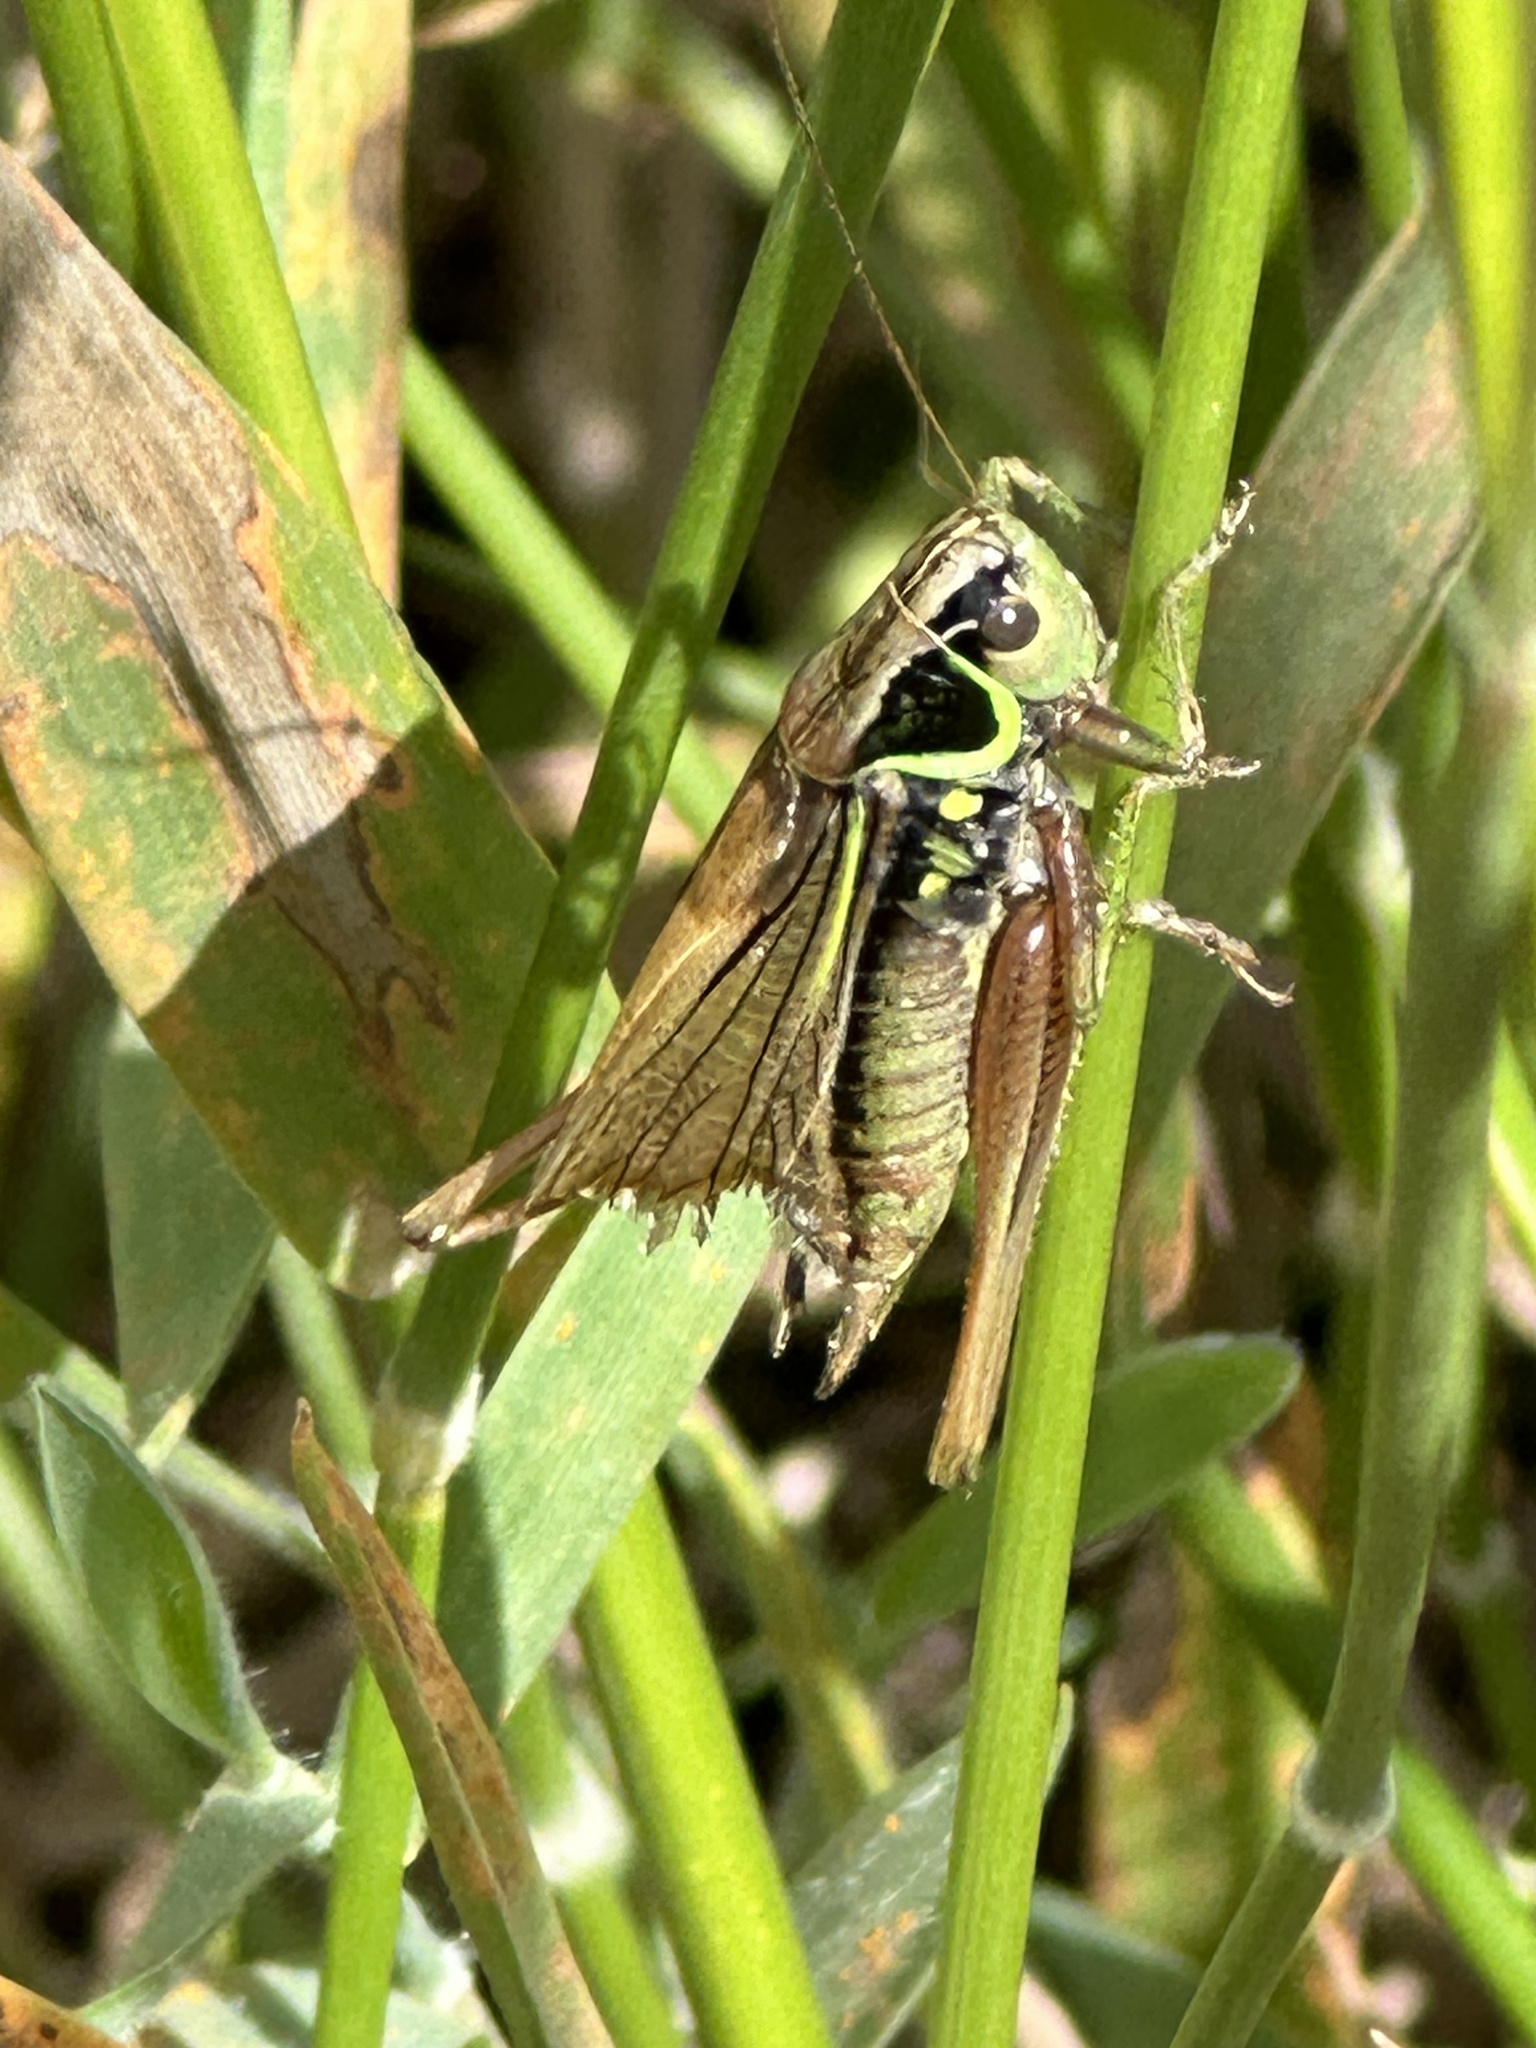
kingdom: Animalia
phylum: Arthropoda
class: Insecta
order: Orthoptera
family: Tettigoniidae
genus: Roeseliana
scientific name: Roeseliana roeselii
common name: Roesel's bush cricket
